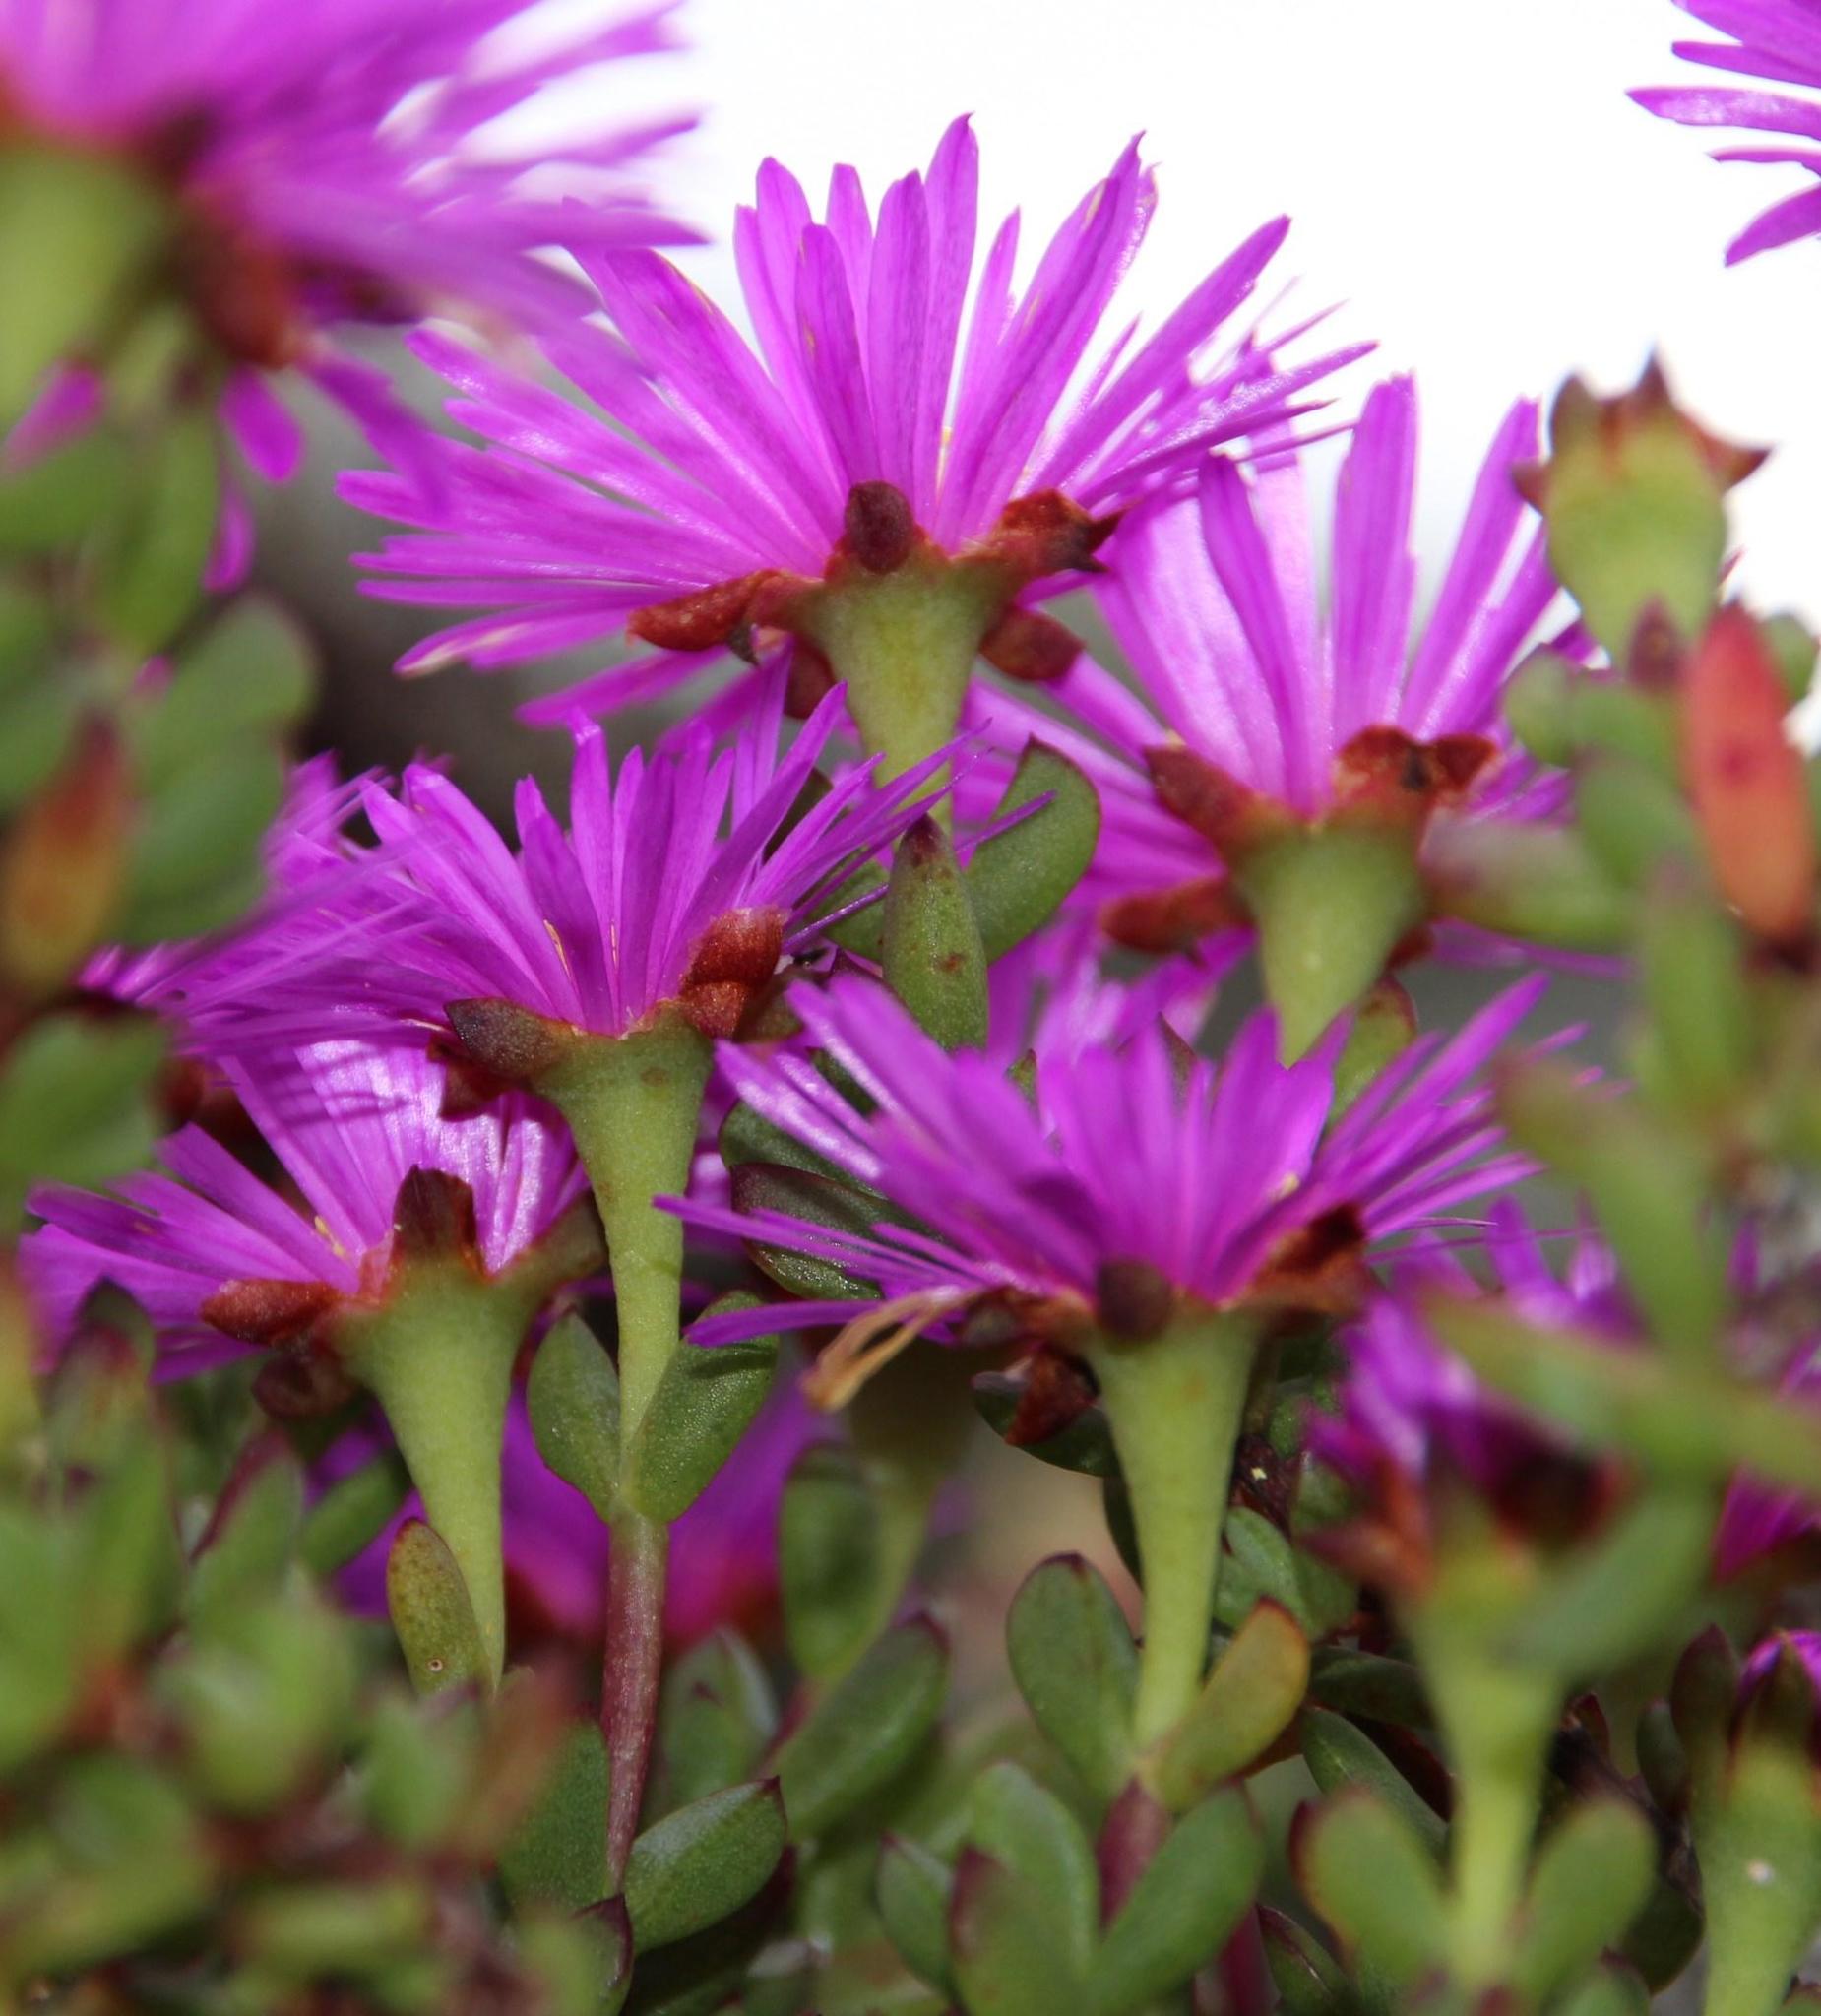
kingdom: Plantae
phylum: Tracheophyta
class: Magnoliopsida
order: Caryophyllales
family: Aizoaceae
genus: Oscularia
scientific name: Oscularia falciformis
